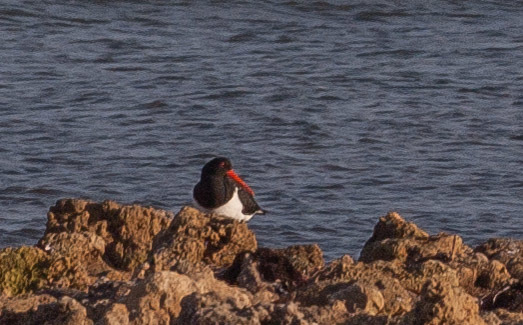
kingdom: Animalia
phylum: Chordata
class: Aves
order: Charadriiformes
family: Haematopodidae
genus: Haematopus
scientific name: Haematopus longirostris
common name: Pied oystercatcher
